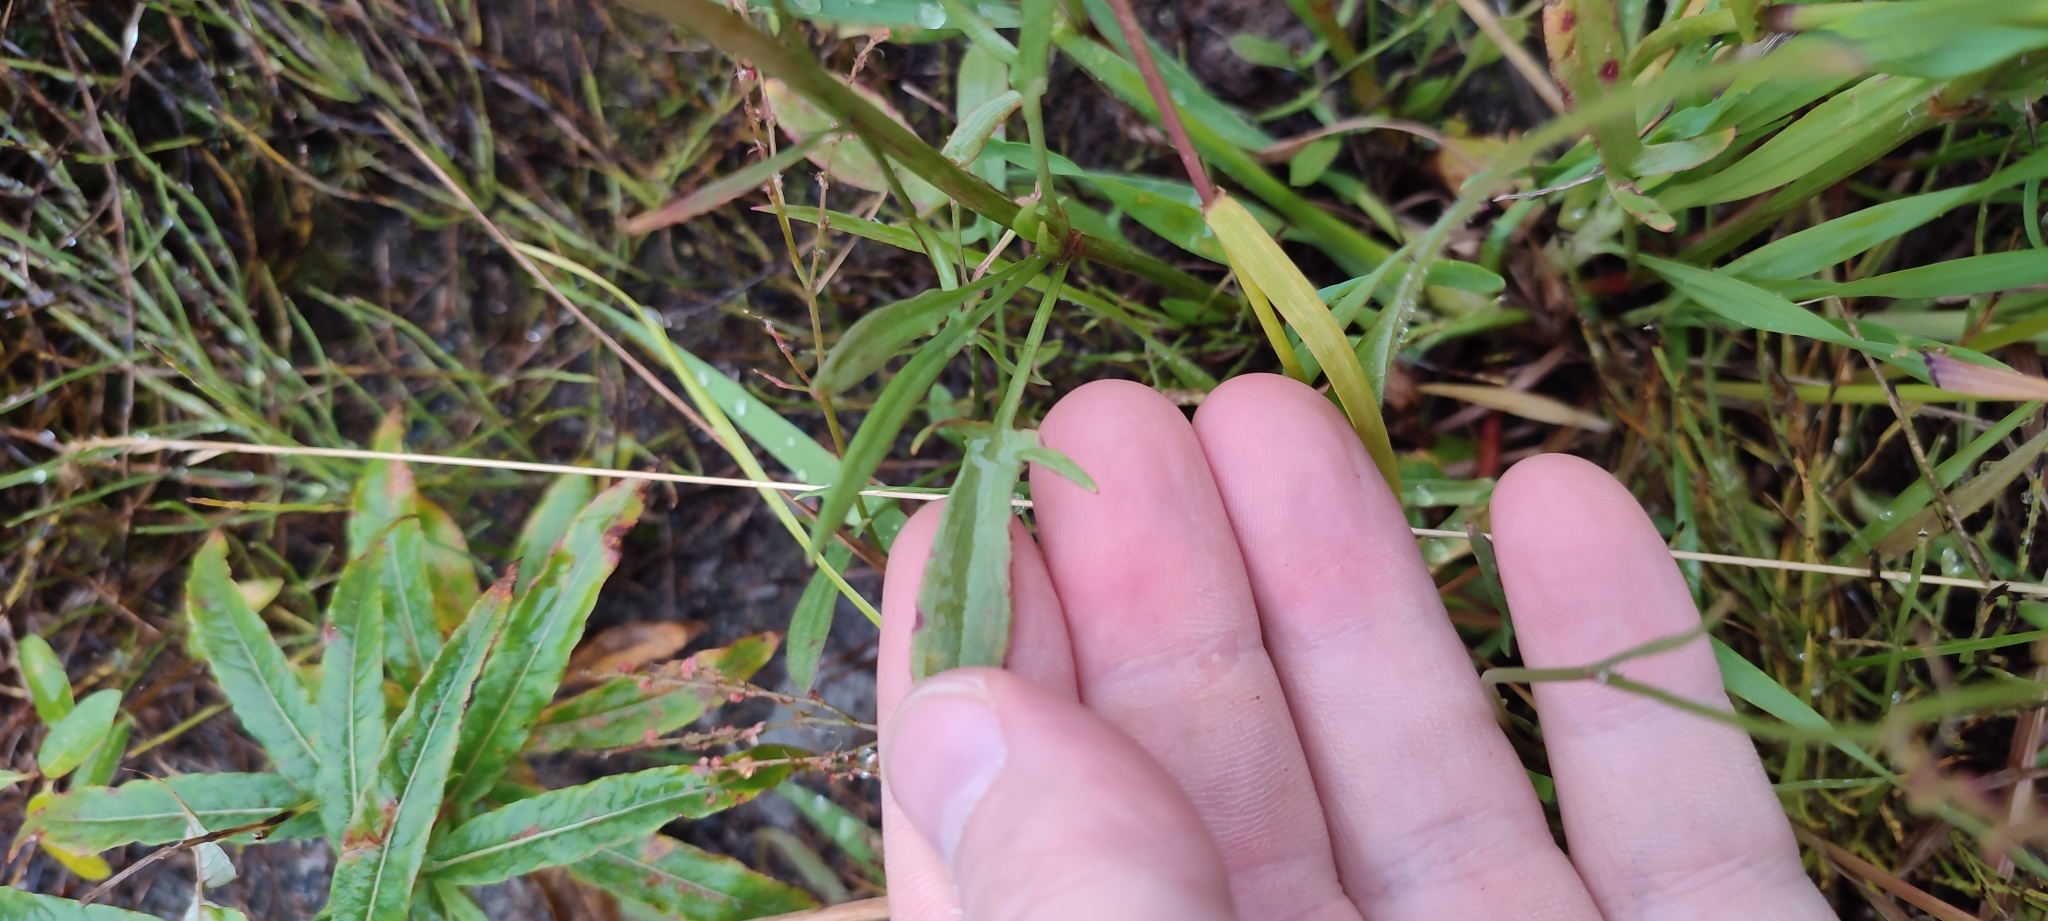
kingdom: Plantae
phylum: Tracheophyta
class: Magnoliopsida
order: Caryophyllales
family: Polygonaceae
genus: Rumex
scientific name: Rumex acetosella
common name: Common sheep sorrel
